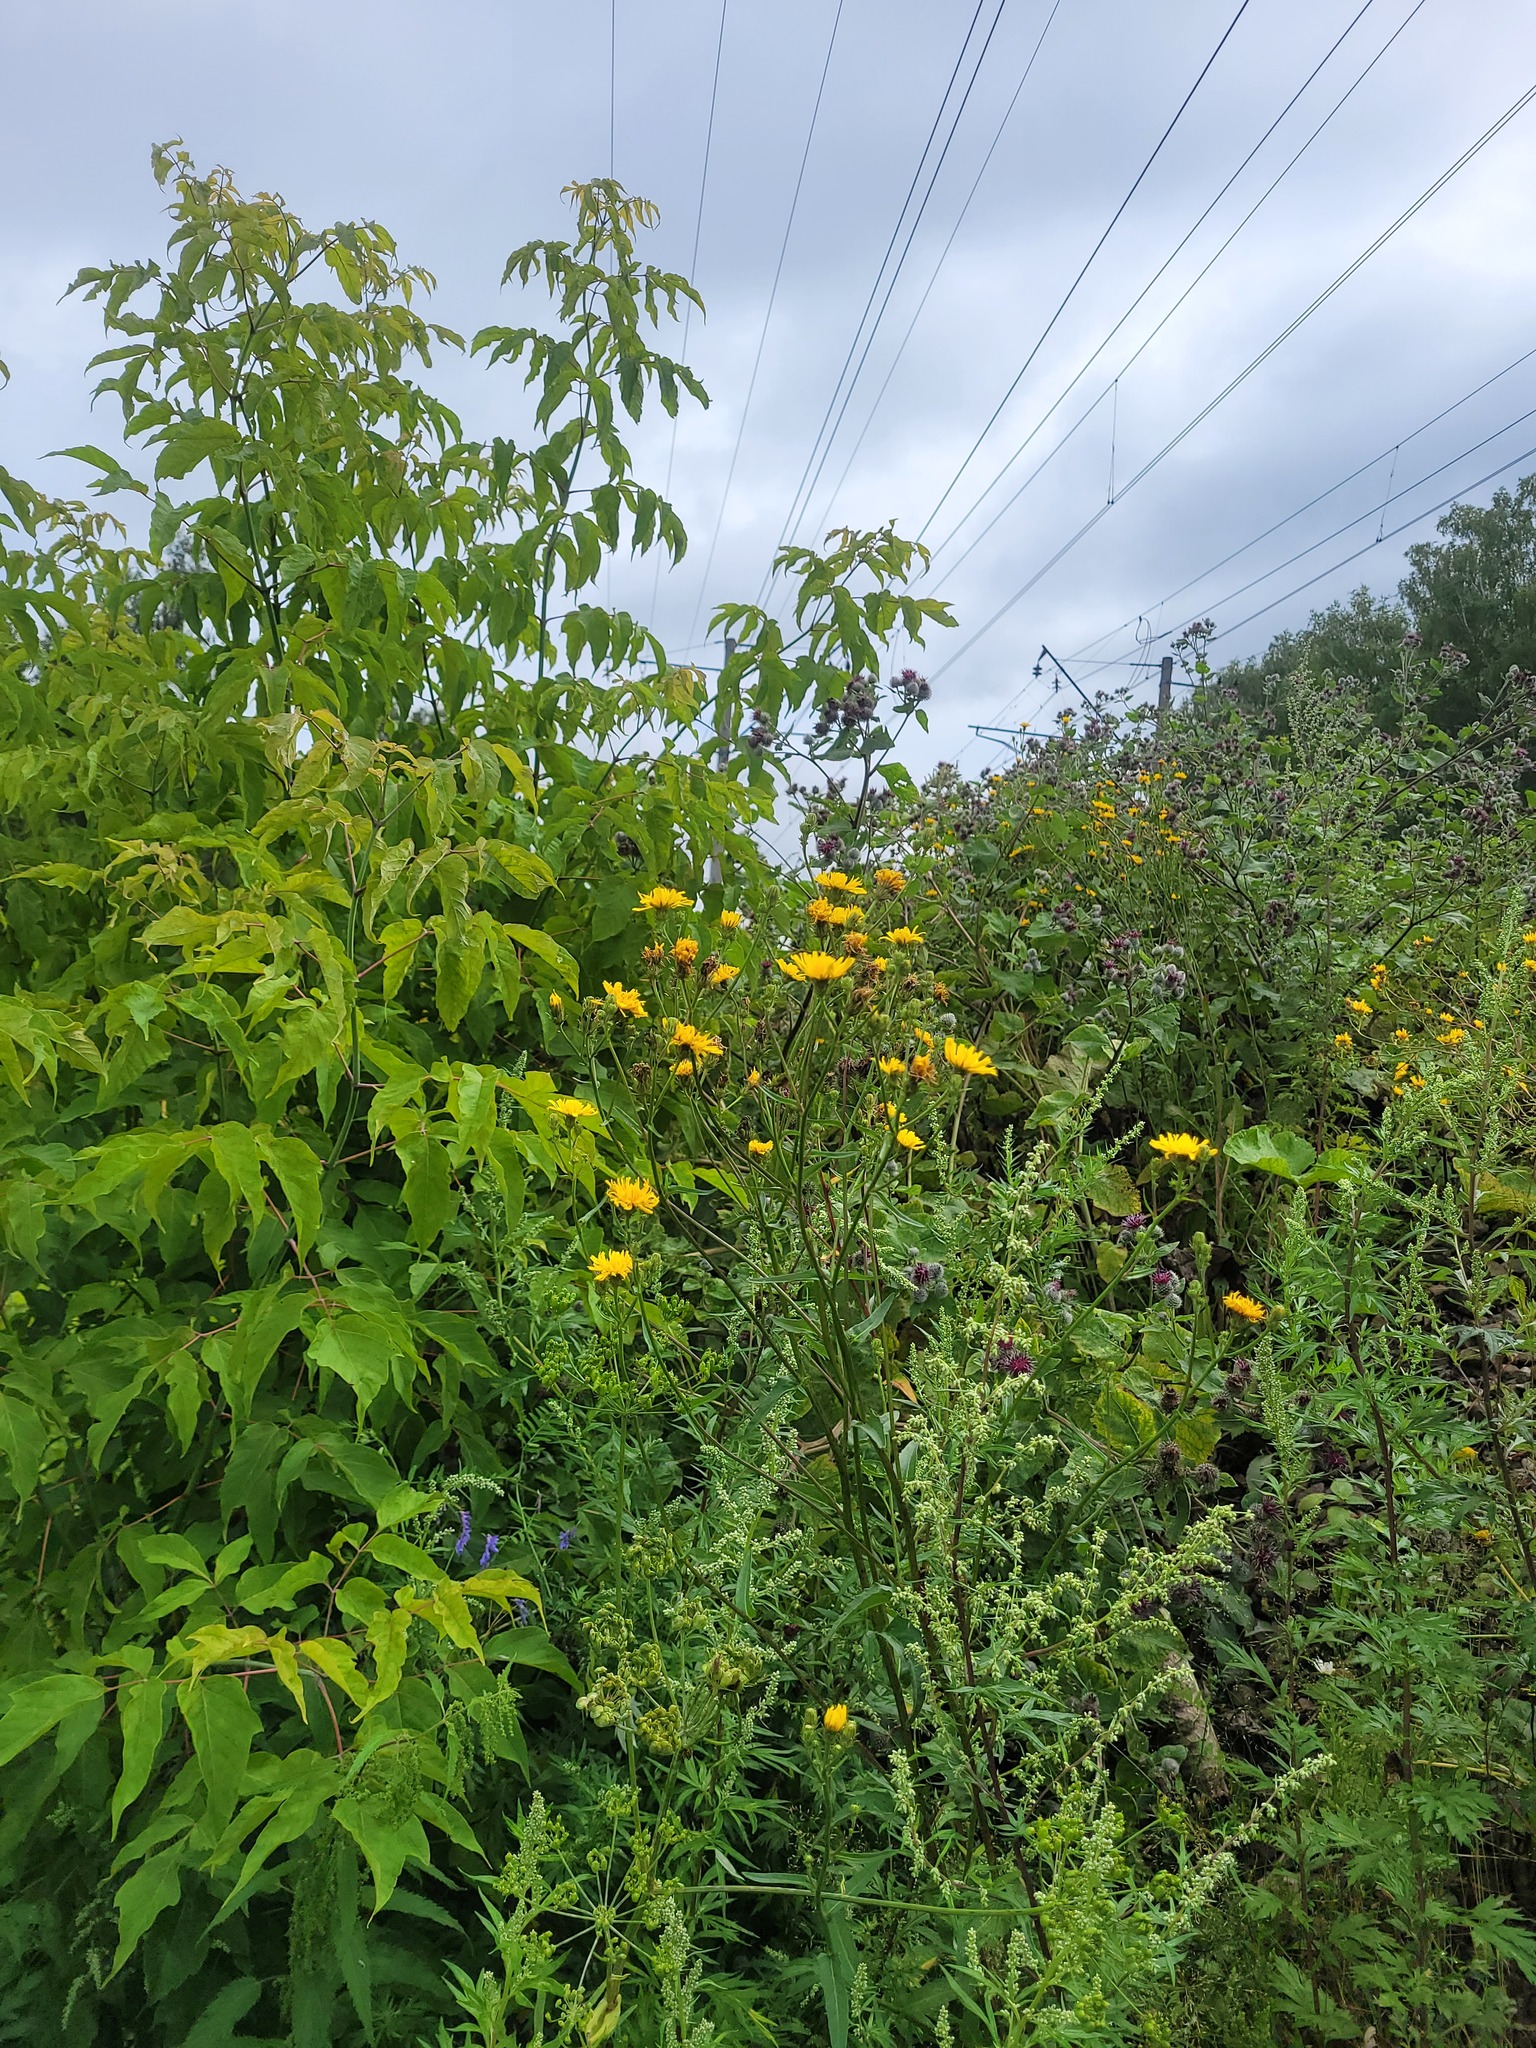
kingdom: Plantae
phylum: Tracheophyta
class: Magnoliopsida
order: Asterales
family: Asteraceae
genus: Picris
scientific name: Picris hieracioides
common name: Hawkweed oxtongue
